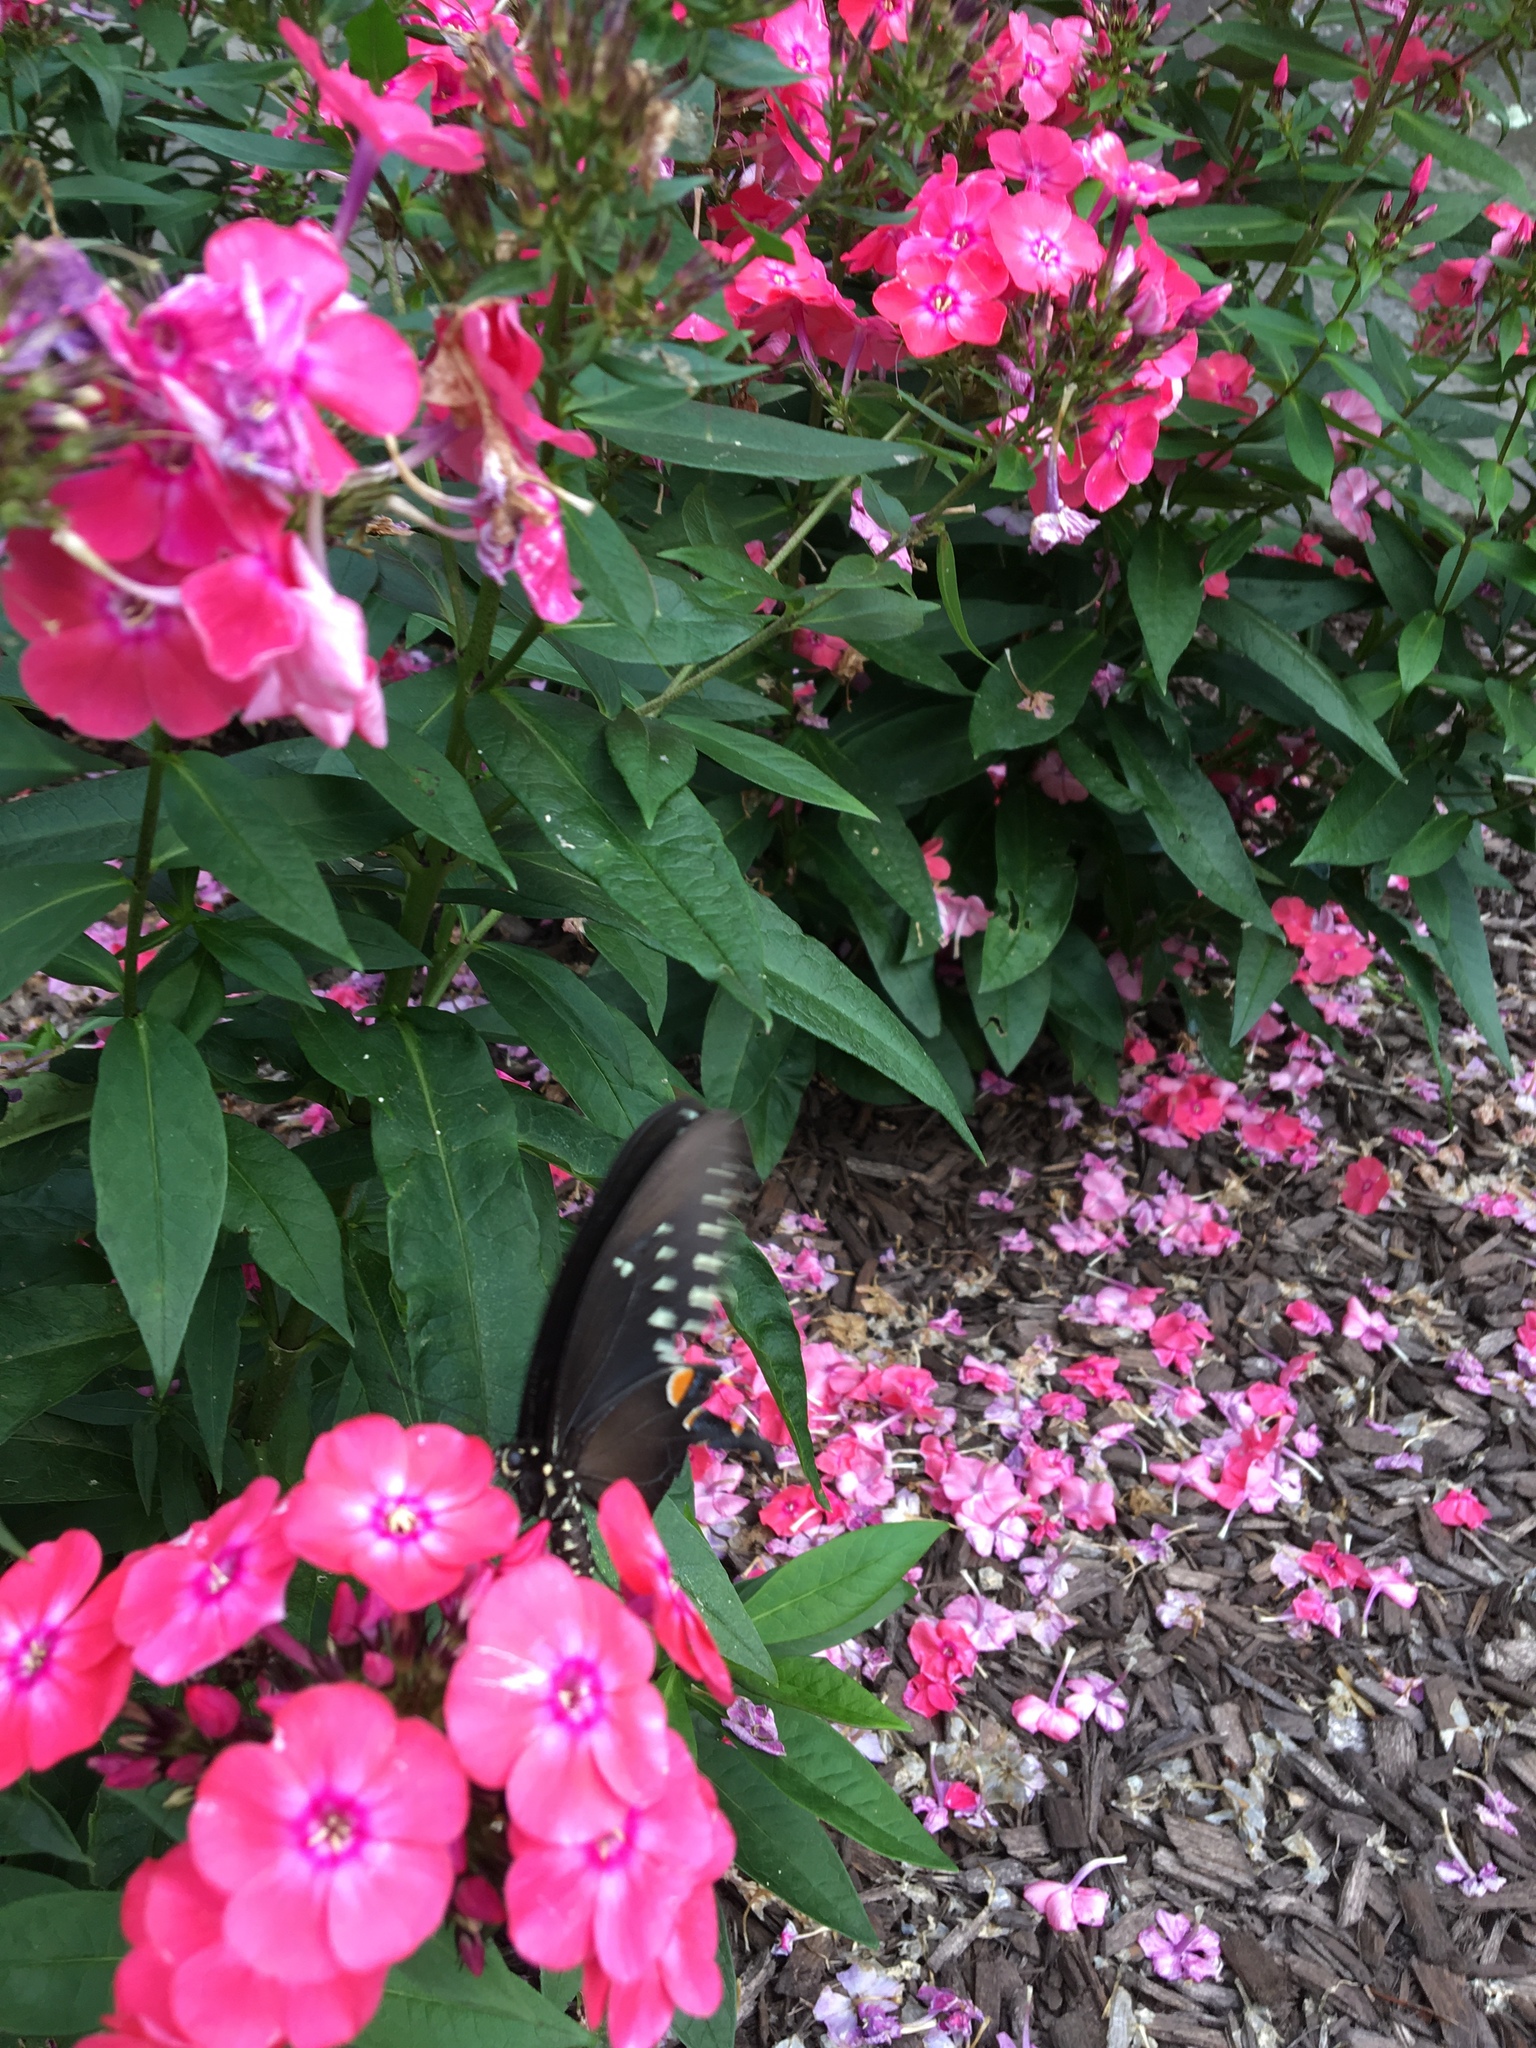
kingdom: Animalia
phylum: Arthropoda
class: Insecta
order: Lepidoptera
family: Papilionidae
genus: Papilio
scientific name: Papilio troilus
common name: Spicebush swallowtail
